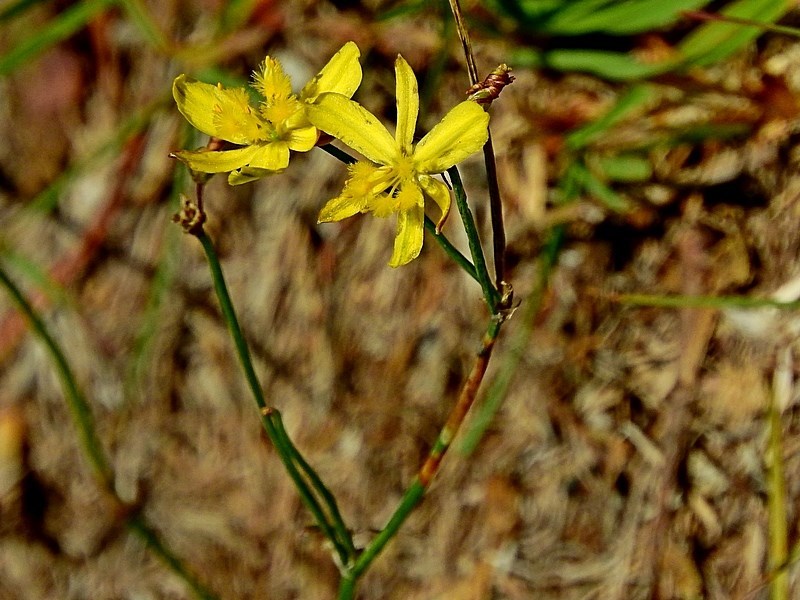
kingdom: Plantae
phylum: Tracheophyta
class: Liliopsida
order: Asparagales
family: Asphodelaceae
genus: Tricoryne
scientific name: Tricoryne elatior
